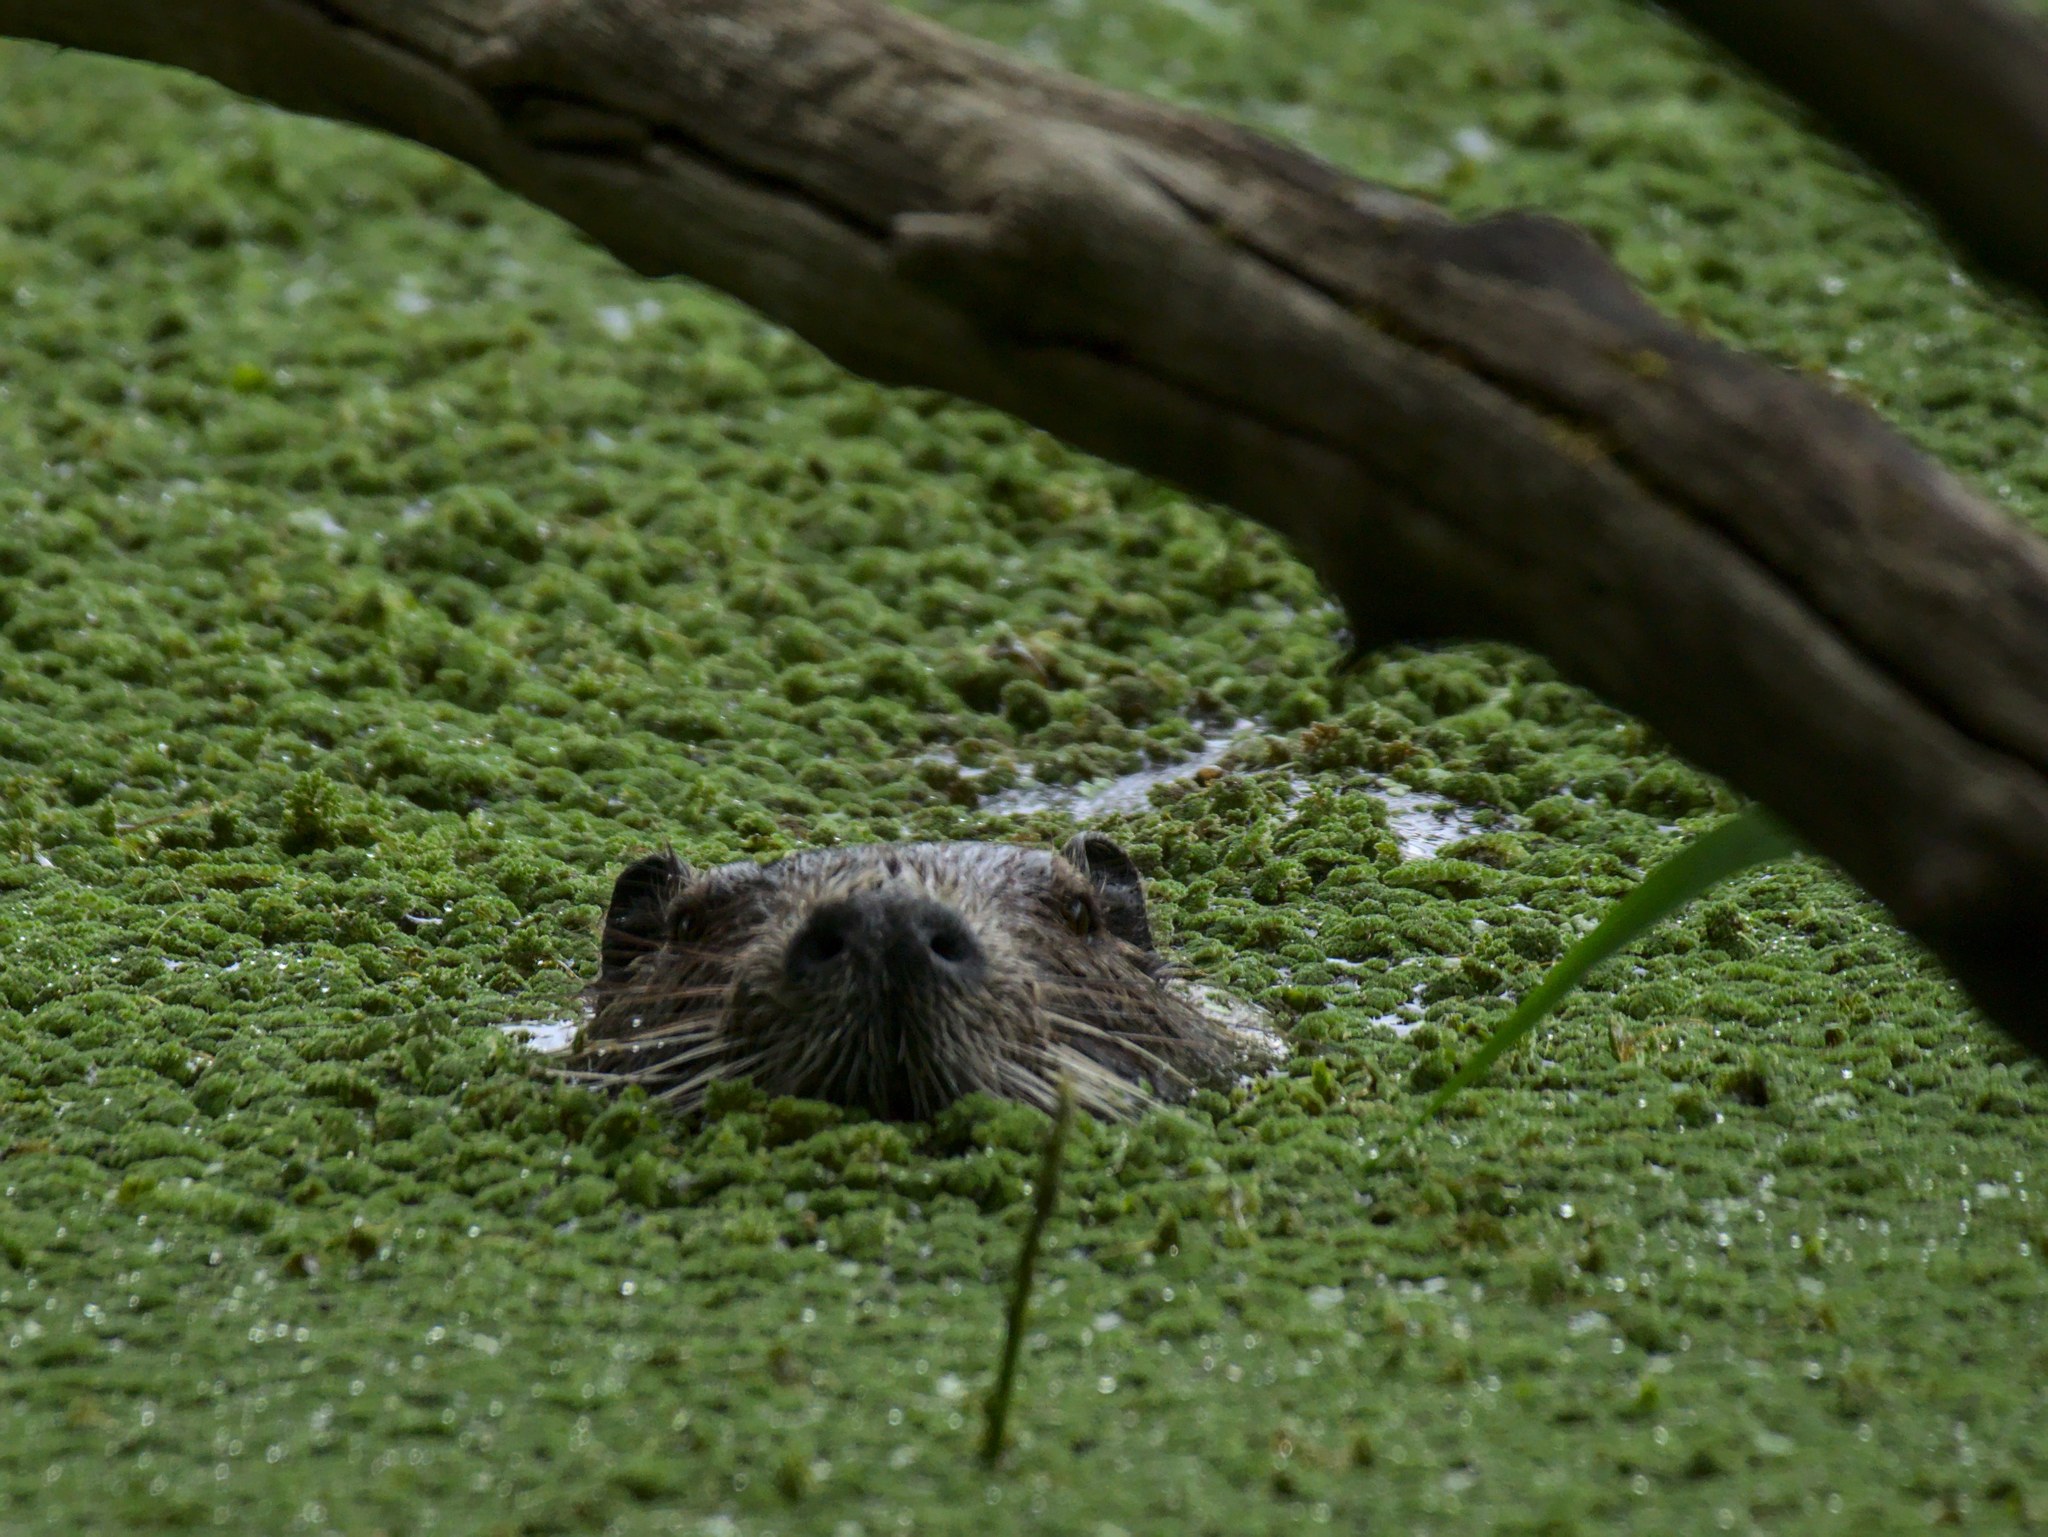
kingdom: Animalia
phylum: Chordata
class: Mammalia
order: Rodentia
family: Myocastoridae
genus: Myocastor
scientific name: Myocastor coypus
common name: Coypu
